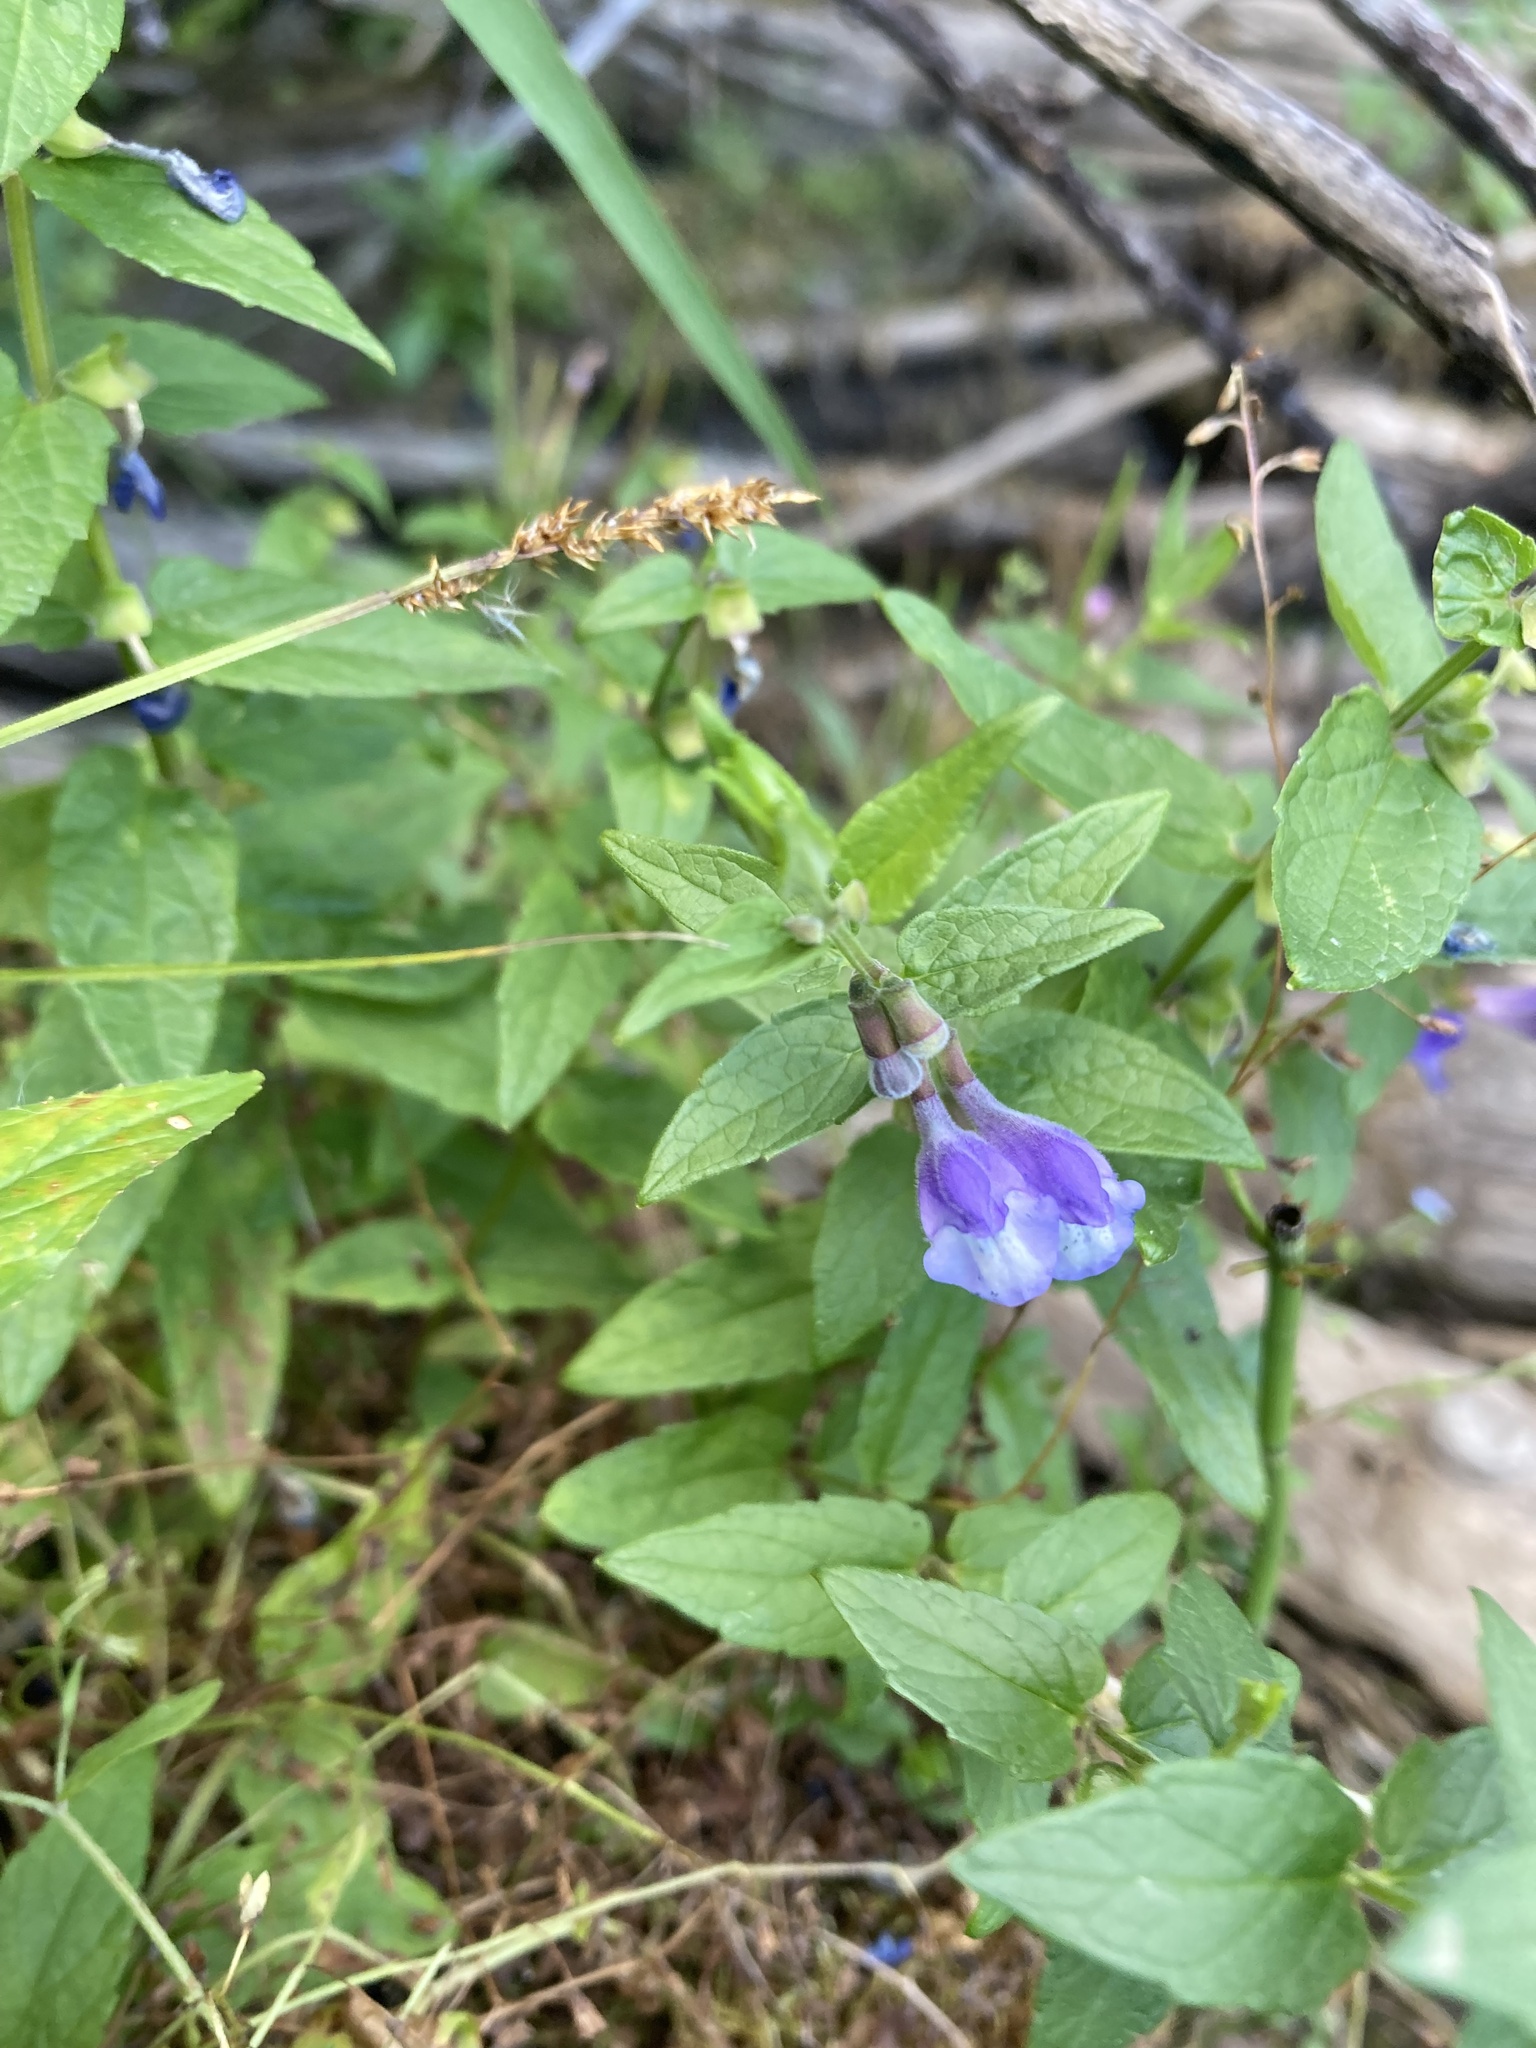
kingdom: Plantae
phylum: Tracheophyta
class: Magnoliopsida
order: Lamiales
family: Lamiaceae
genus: Scutellaria
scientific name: Scutellaria galericulata
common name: Skullcap
